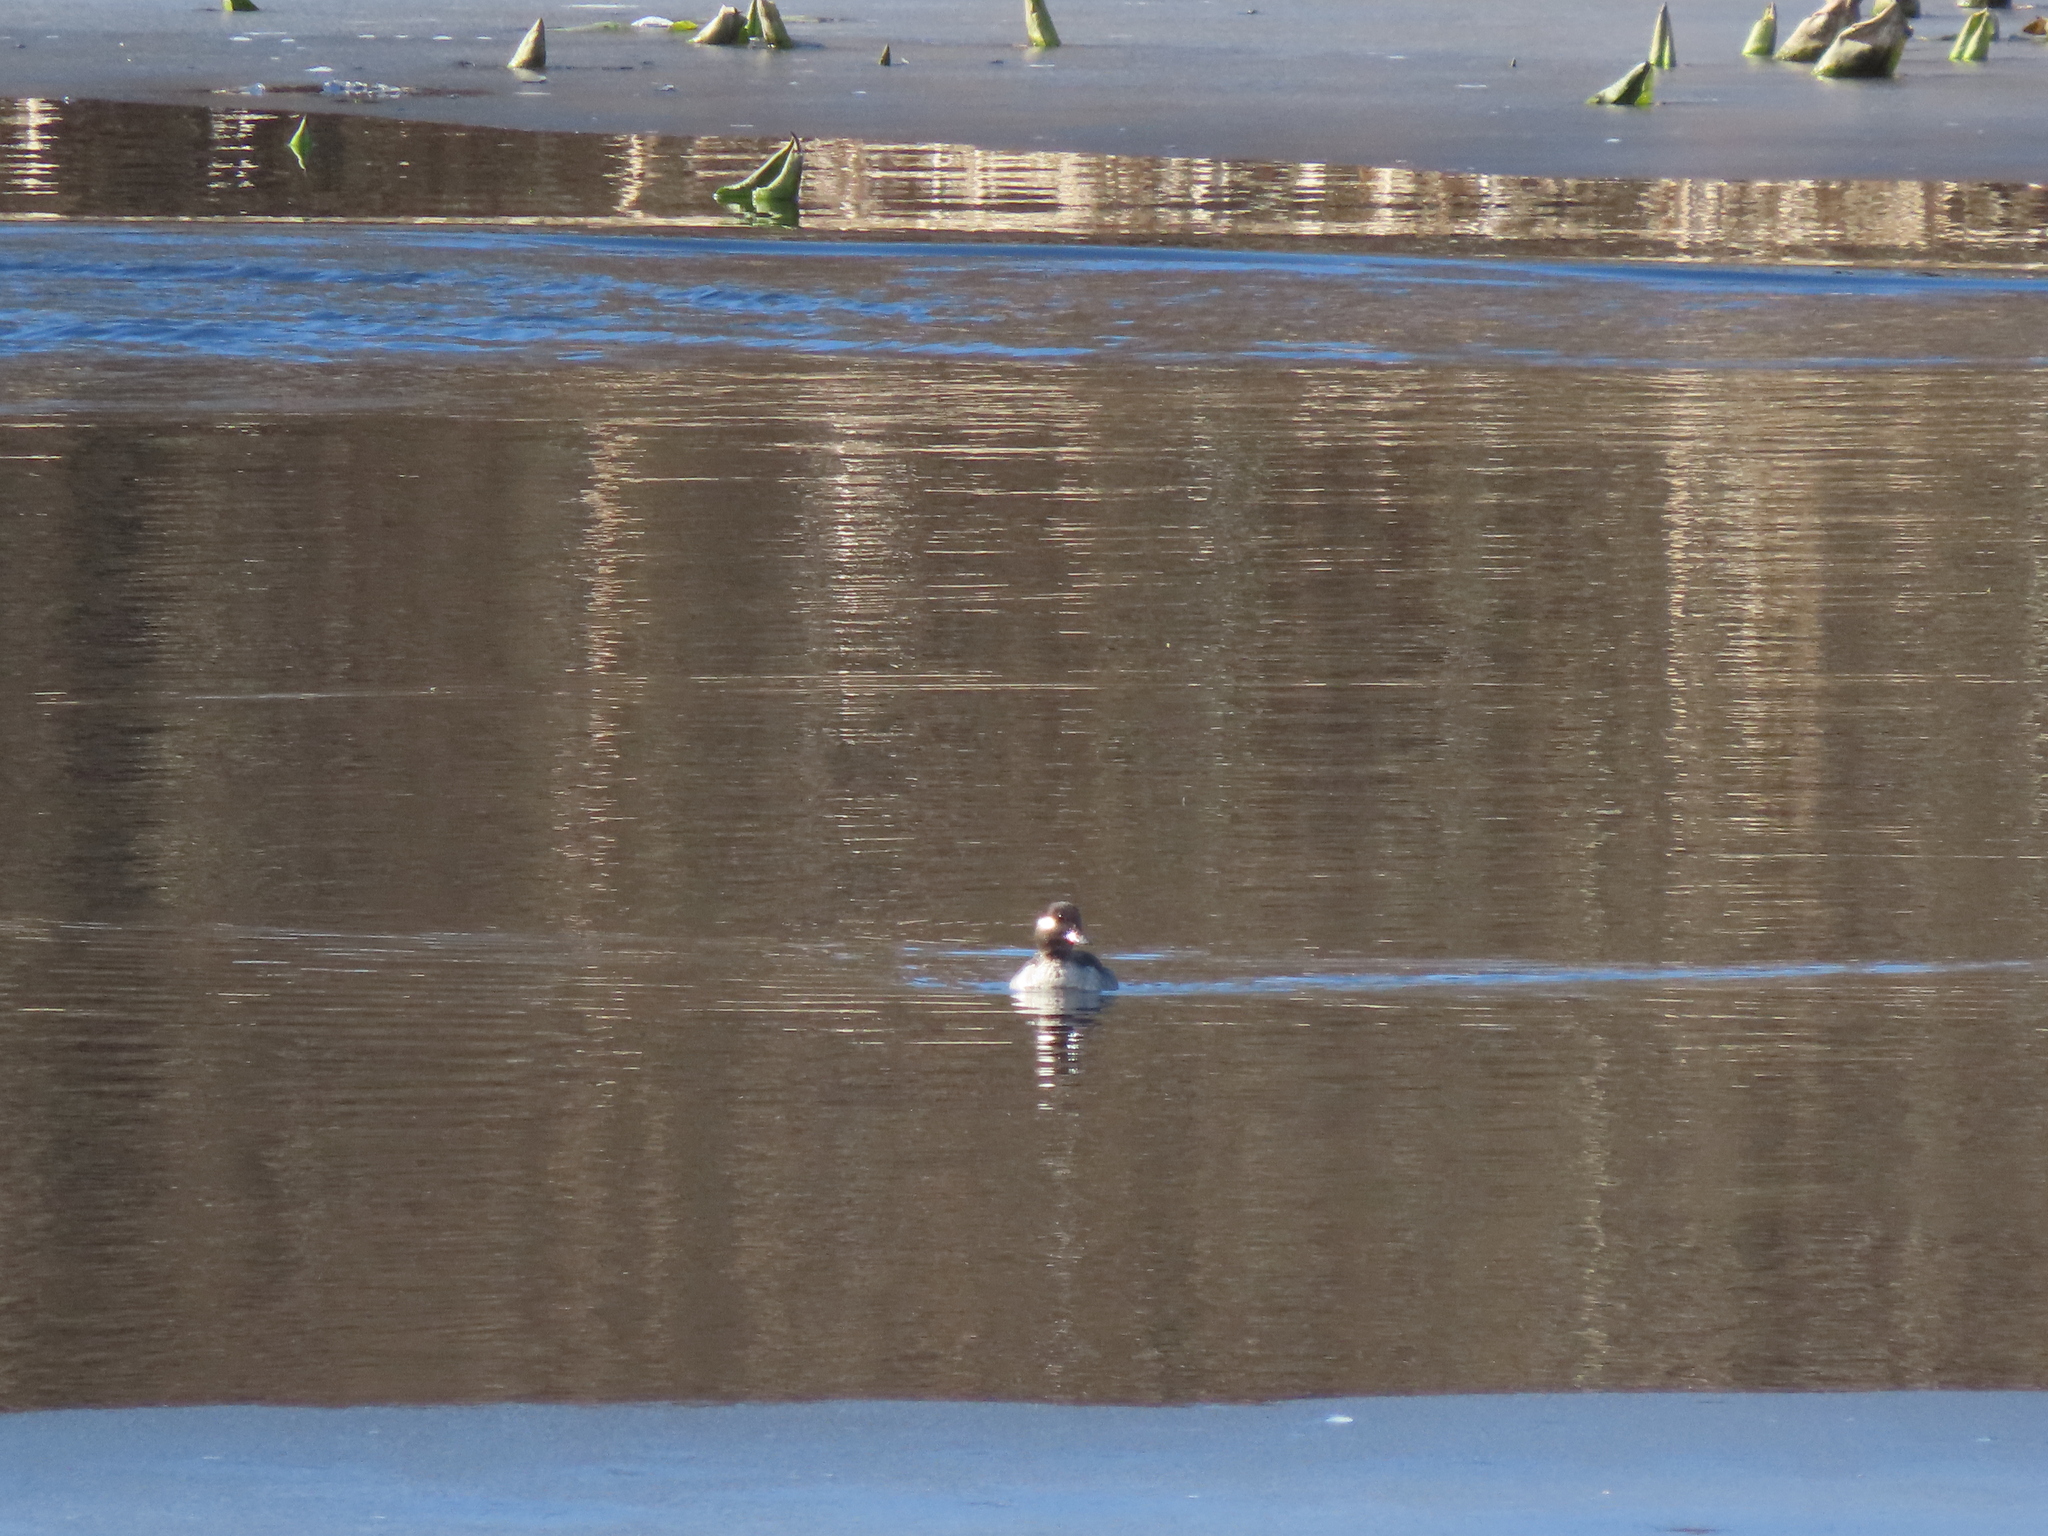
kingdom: Animalia
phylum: Chordata
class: Aves
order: Anseriformes
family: Anatidae
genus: Bucephala
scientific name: Bucephala albeola
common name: Bufflehead
